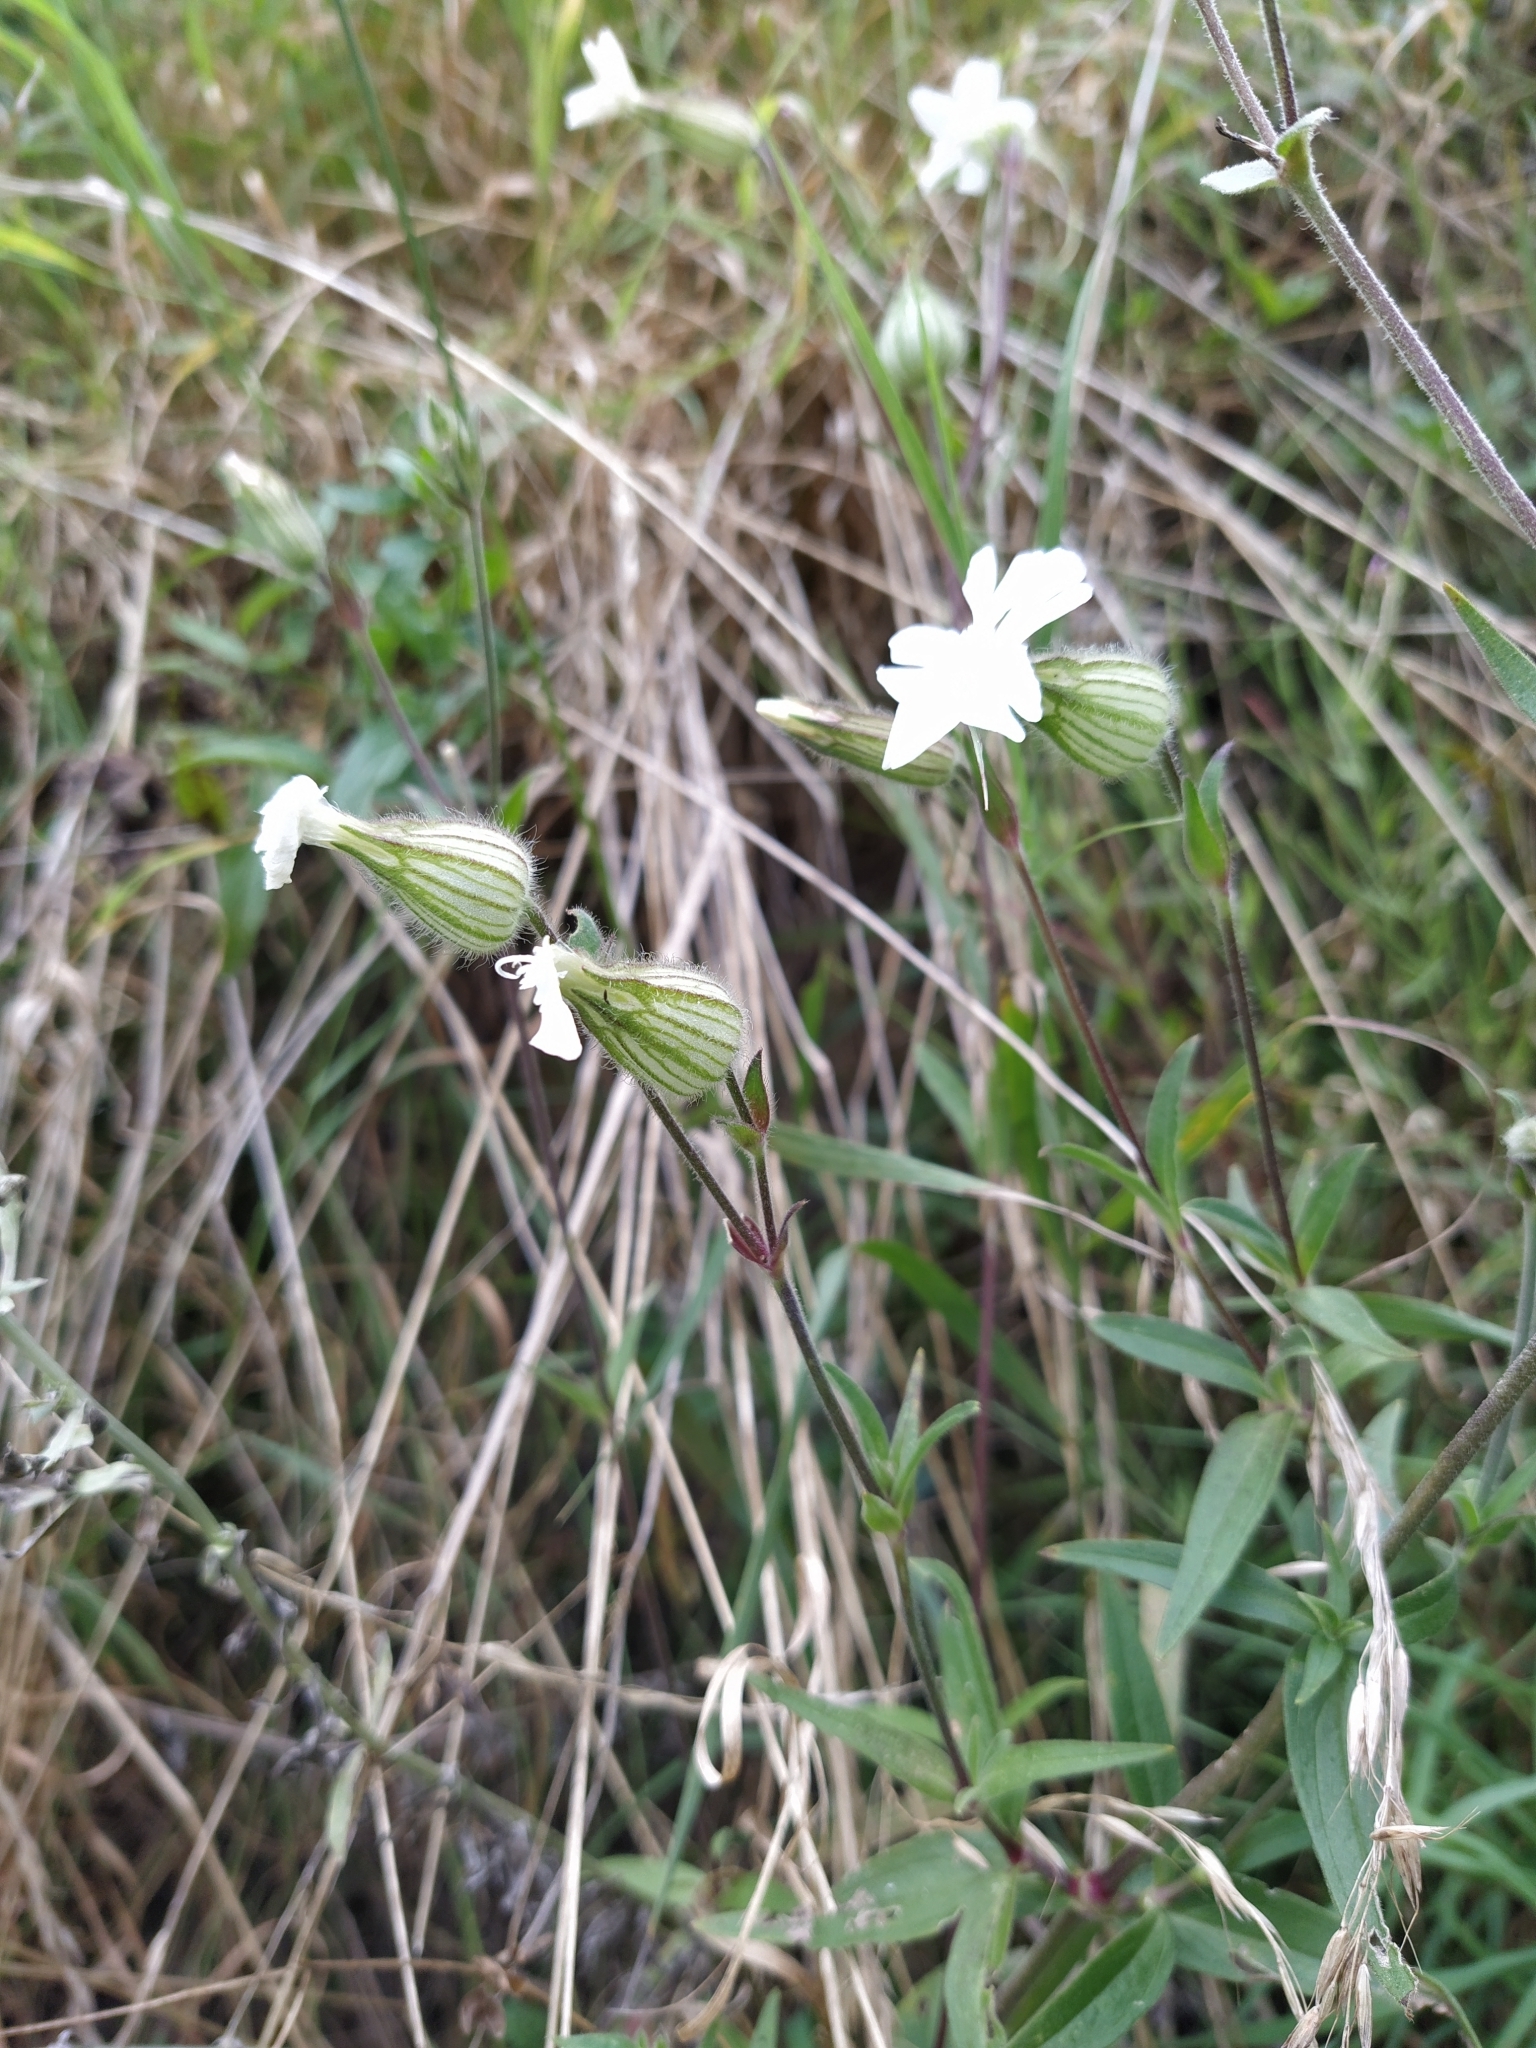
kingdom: Plantae
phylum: Tracheophyta
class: Magnoliopsida
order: Caryophyllales
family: Caryophyllaceae
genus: Silene
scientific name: Silene latifolia
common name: White campion
